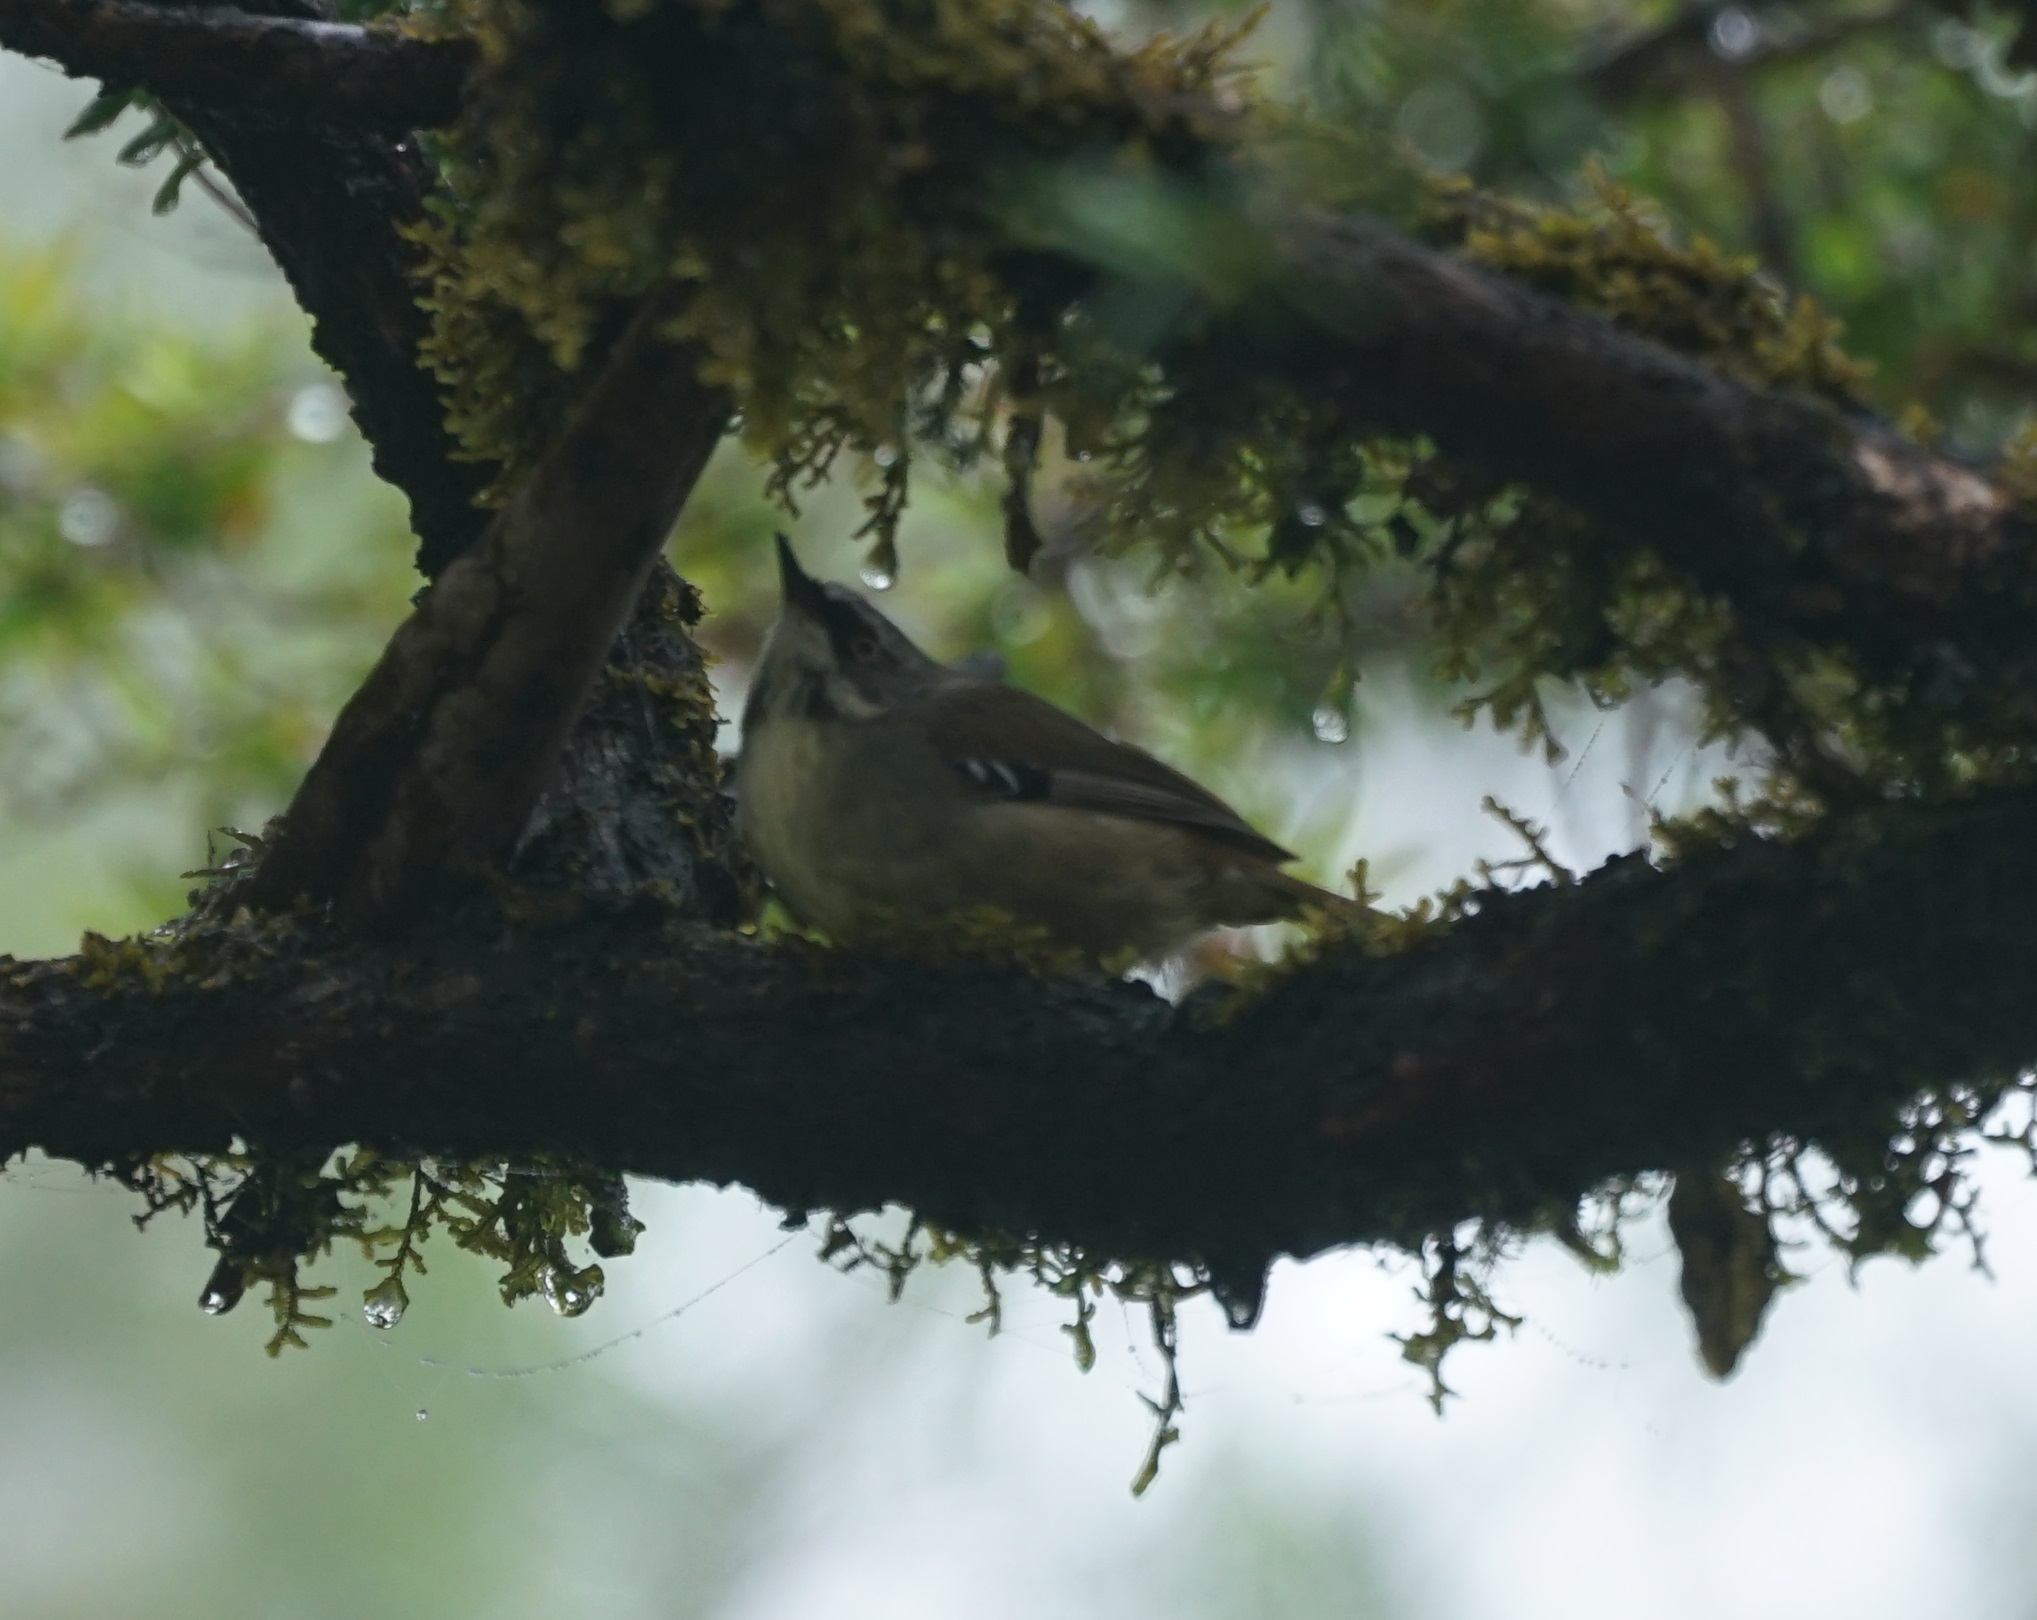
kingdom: Animalia
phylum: Chordata
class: Aves
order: Passeriformes
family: Acanthizidae
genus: Sericornis
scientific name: Sericornis frontalis
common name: White-browed scrubwren
